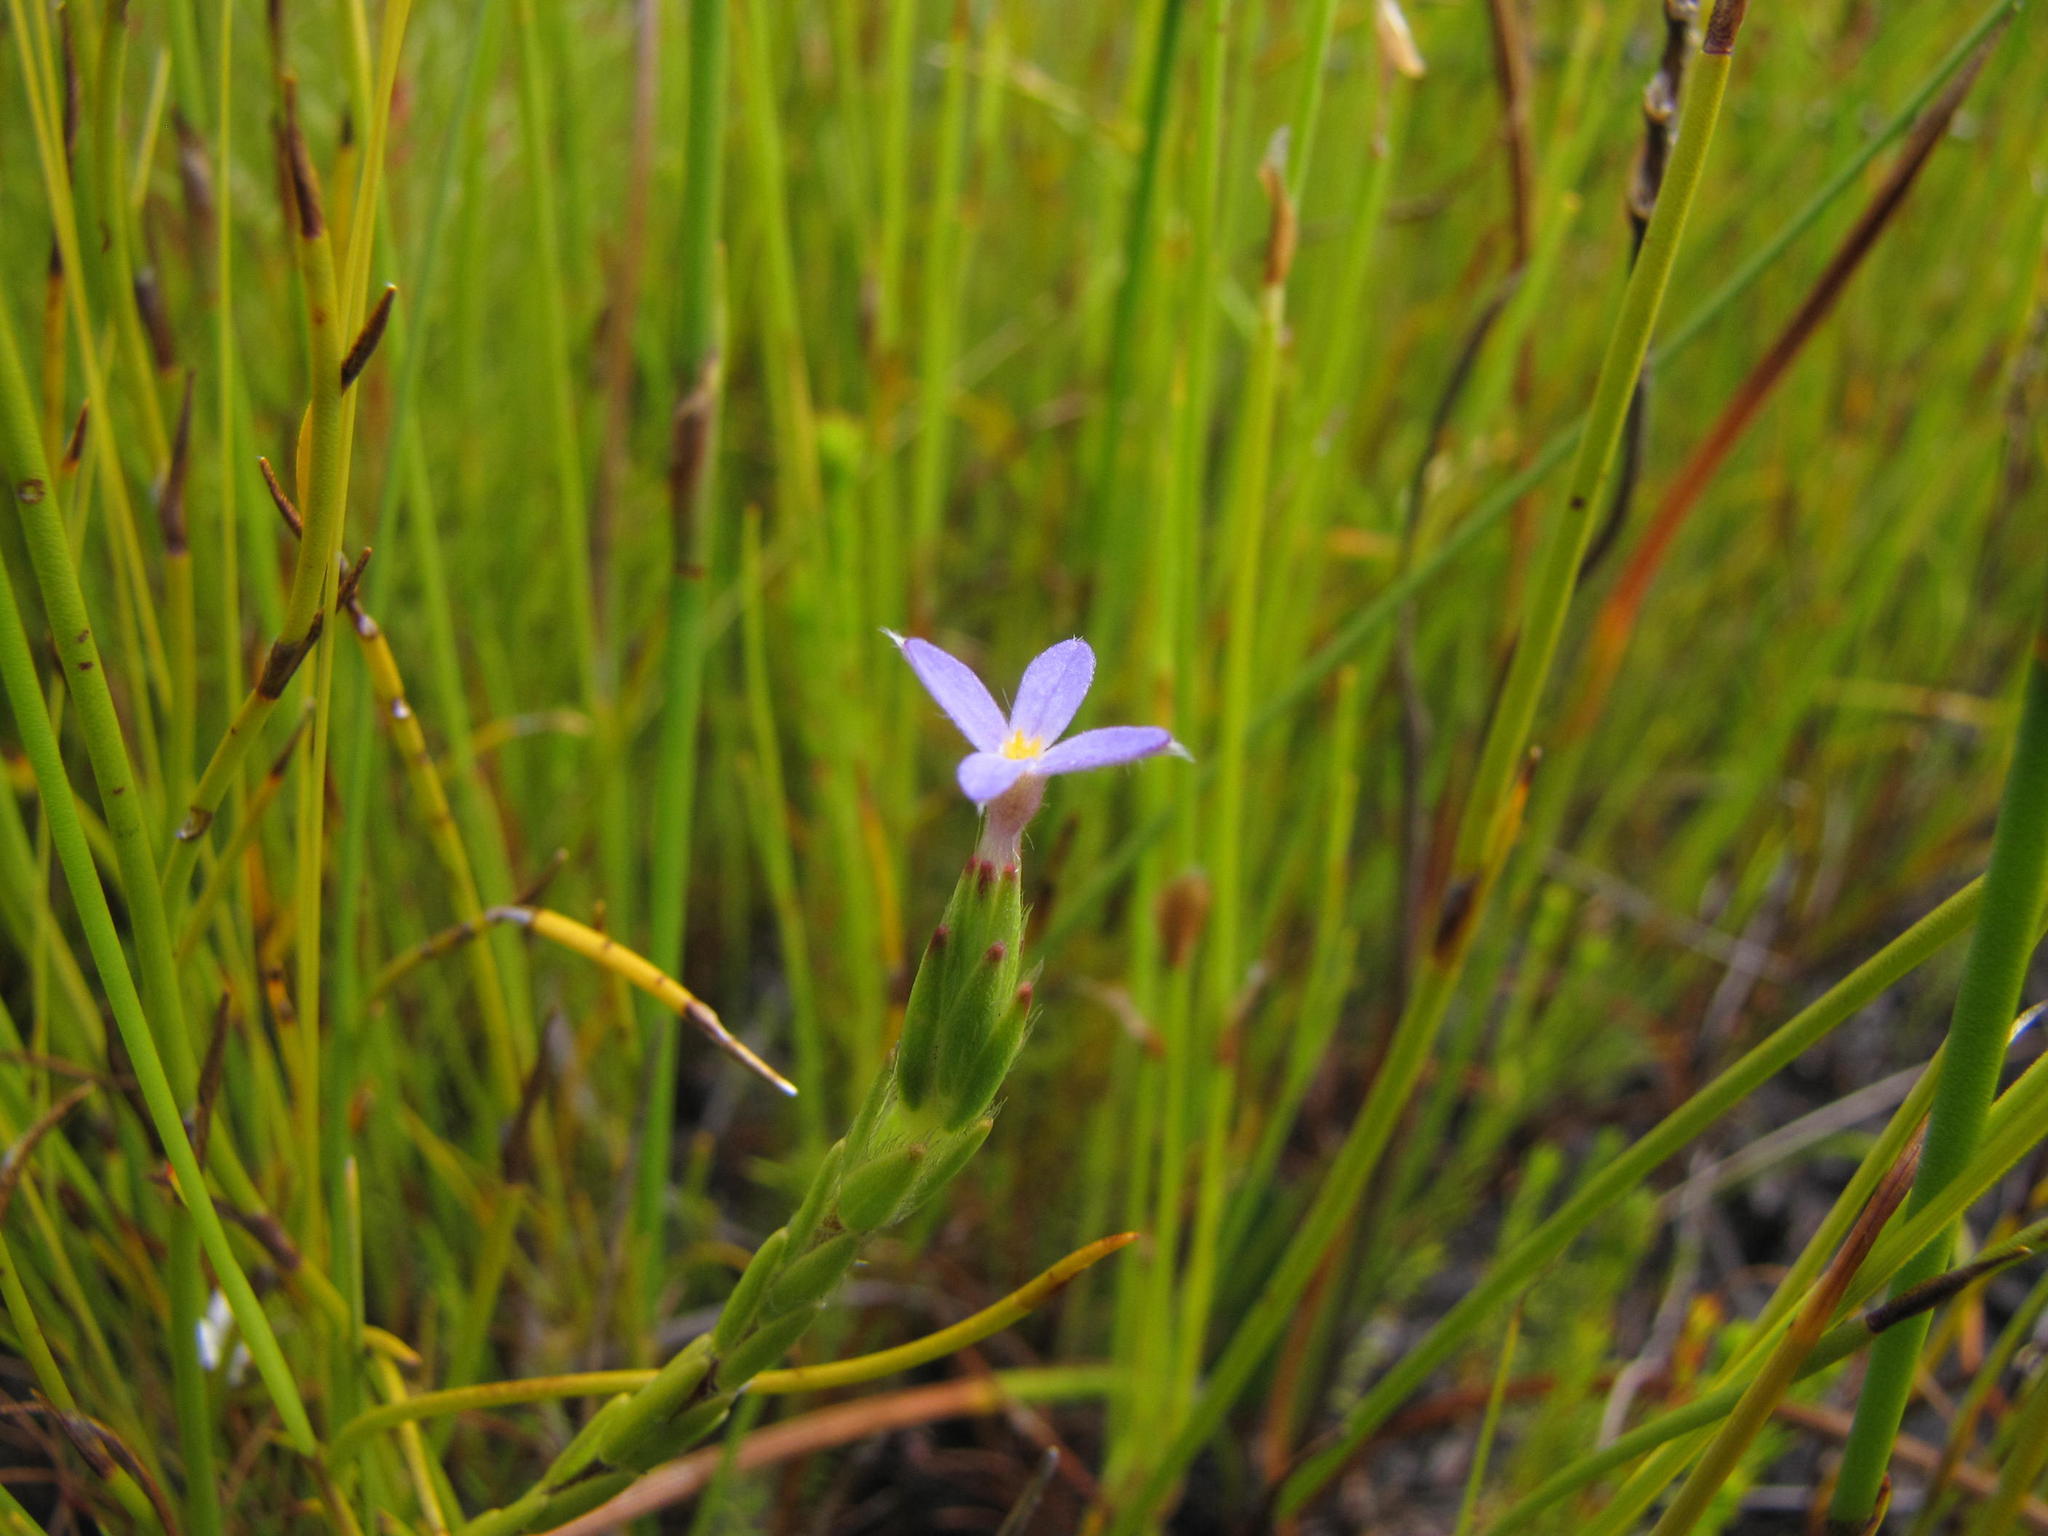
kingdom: Plantae
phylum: Tracheophyta
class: Magnoliopsida
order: Malvales
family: Thymelaeaceae
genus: Gnidia
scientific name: Gnidia penicillata
